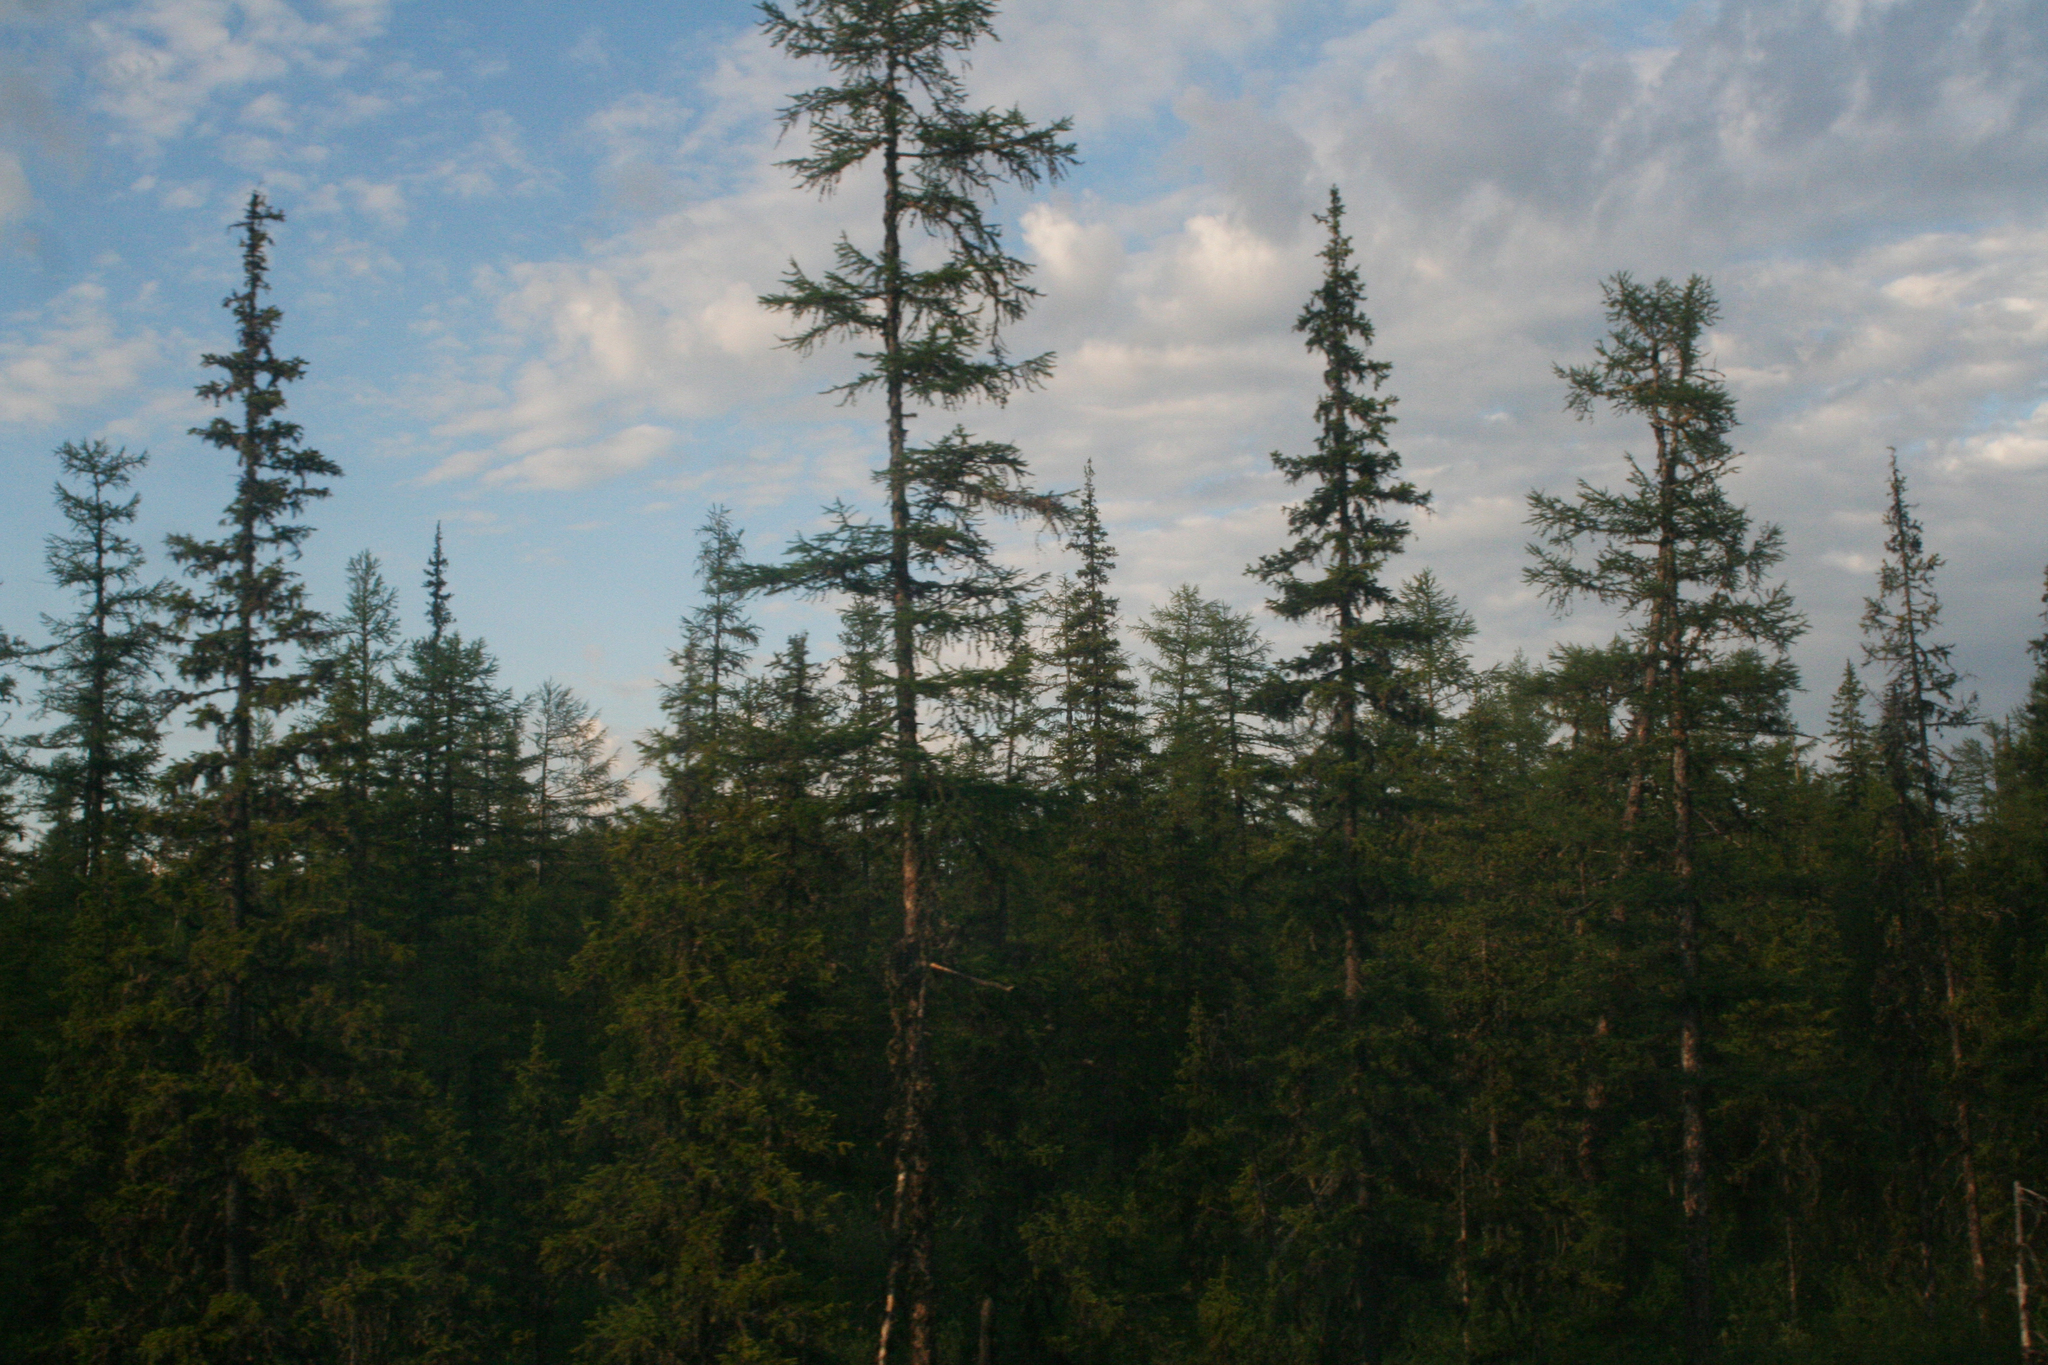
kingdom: Plantae
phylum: Tracheophyta
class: Pinopsida
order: Pinales
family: Pinaceae
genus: Picea
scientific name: Picea obovata
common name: Siberian spruce
